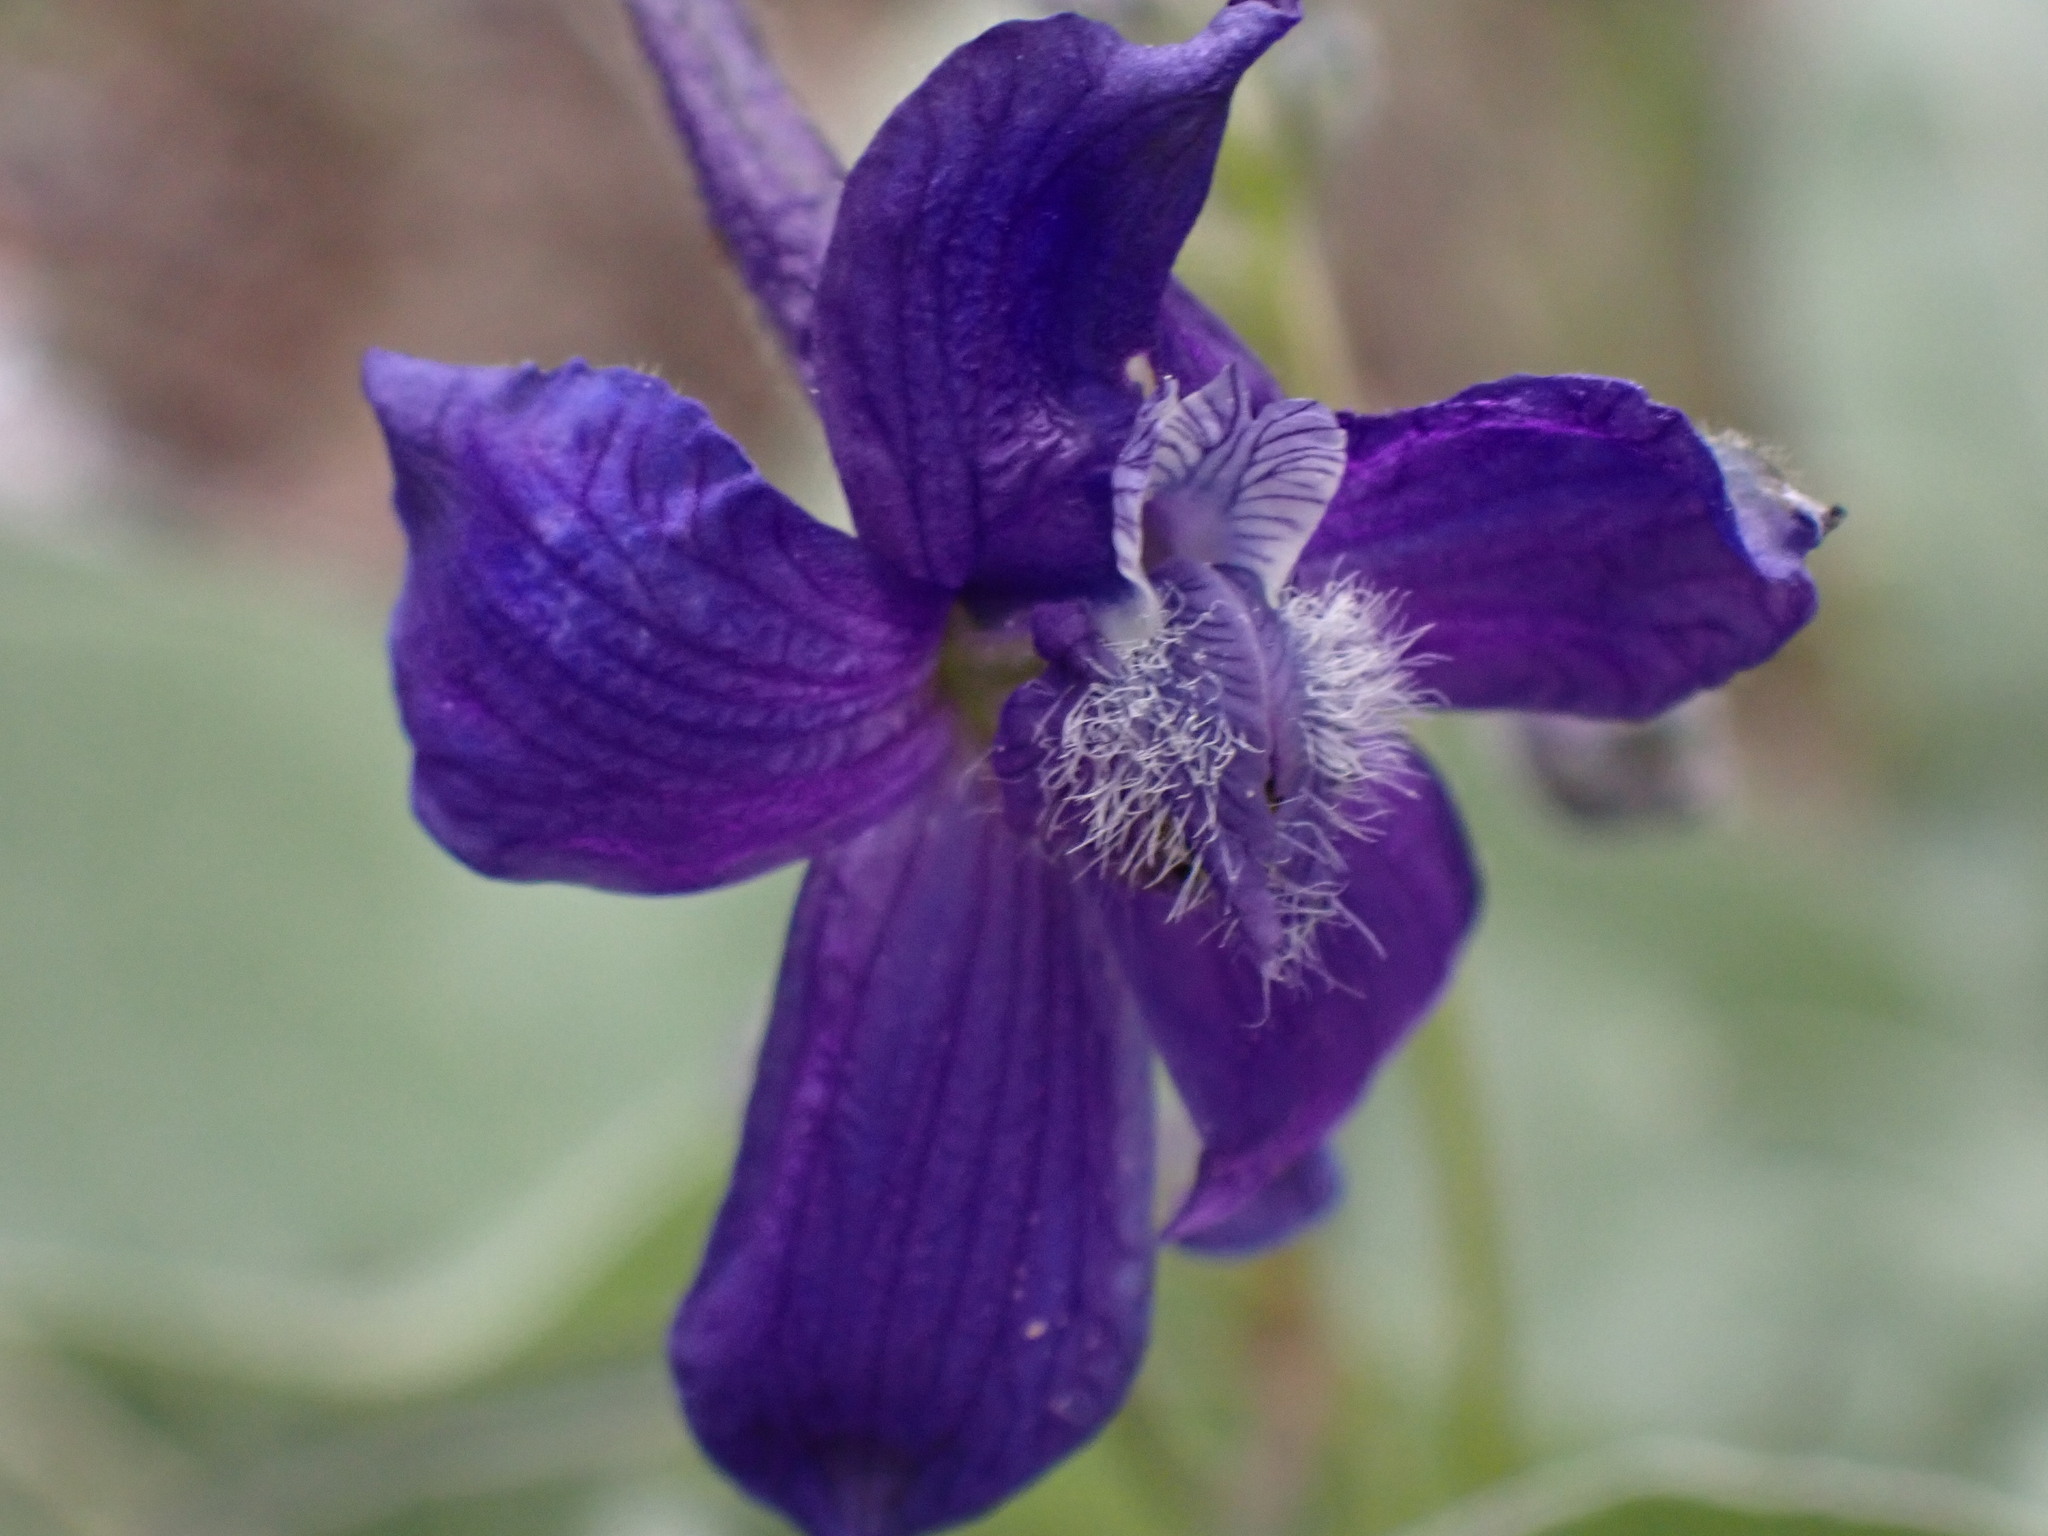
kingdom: Plantae
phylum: Tracheophyta
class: Magnoliopsida
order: Ranunculales
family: Ranunculaceae
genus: Delphinium
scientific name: Delphinium nuttallianum
